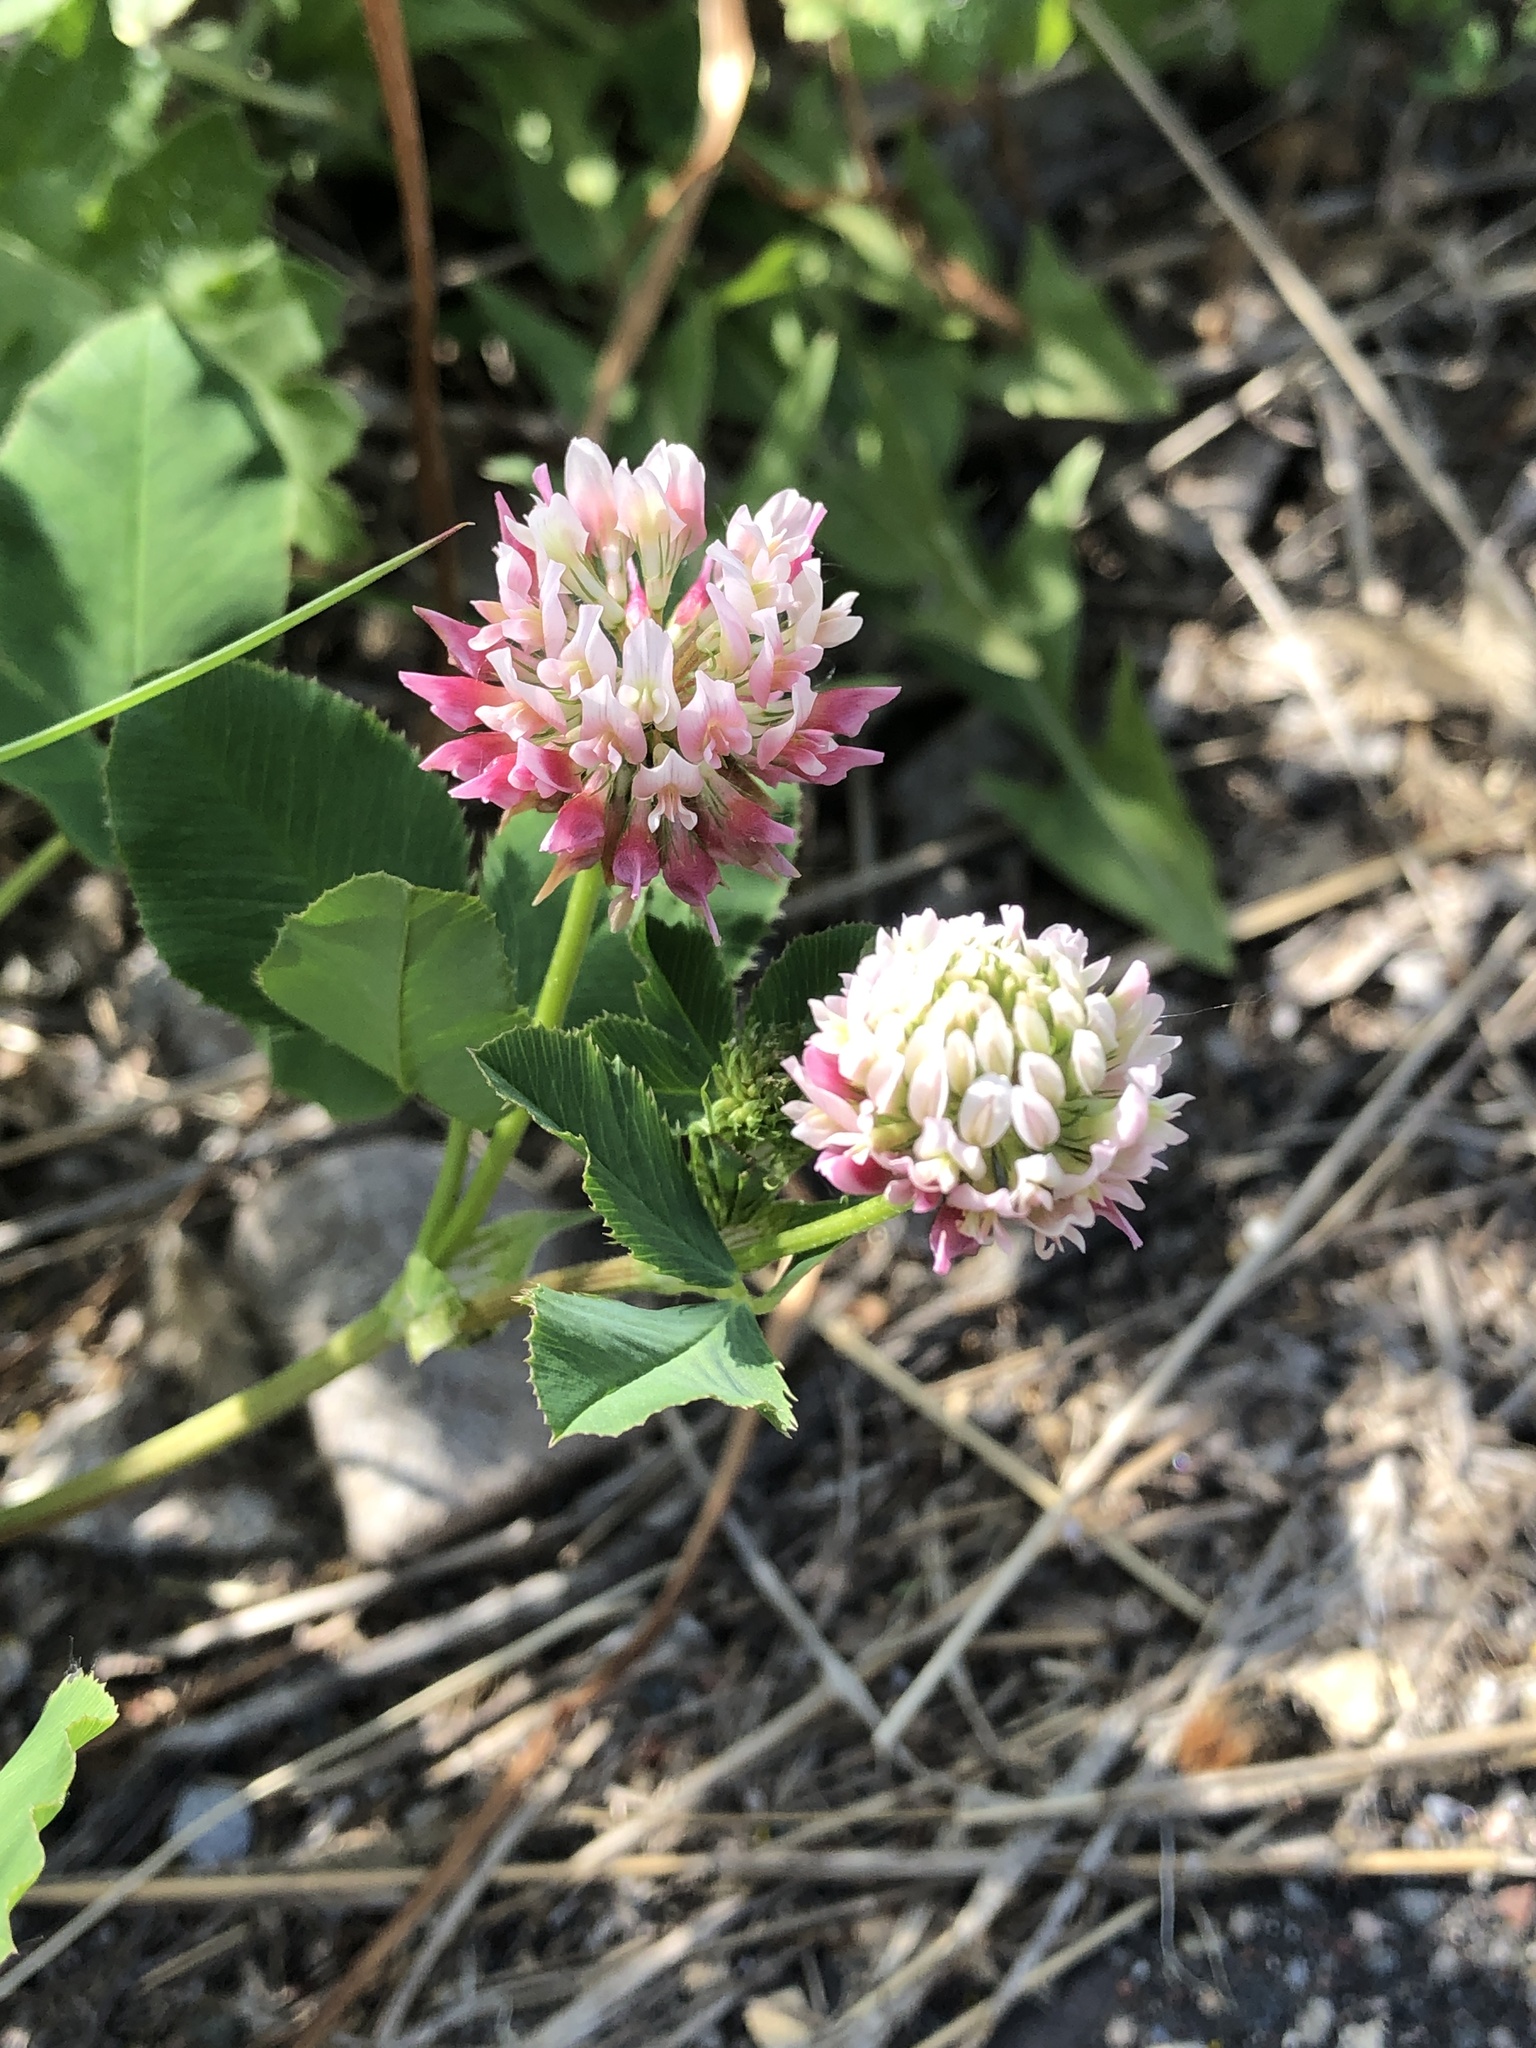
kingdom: Plantae
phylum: Tracheophyta
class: Magnoliopsida
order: Fabales
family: Fabaceae
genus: Trifolium
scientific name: Trifolium hybridum
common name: Alsike clover
